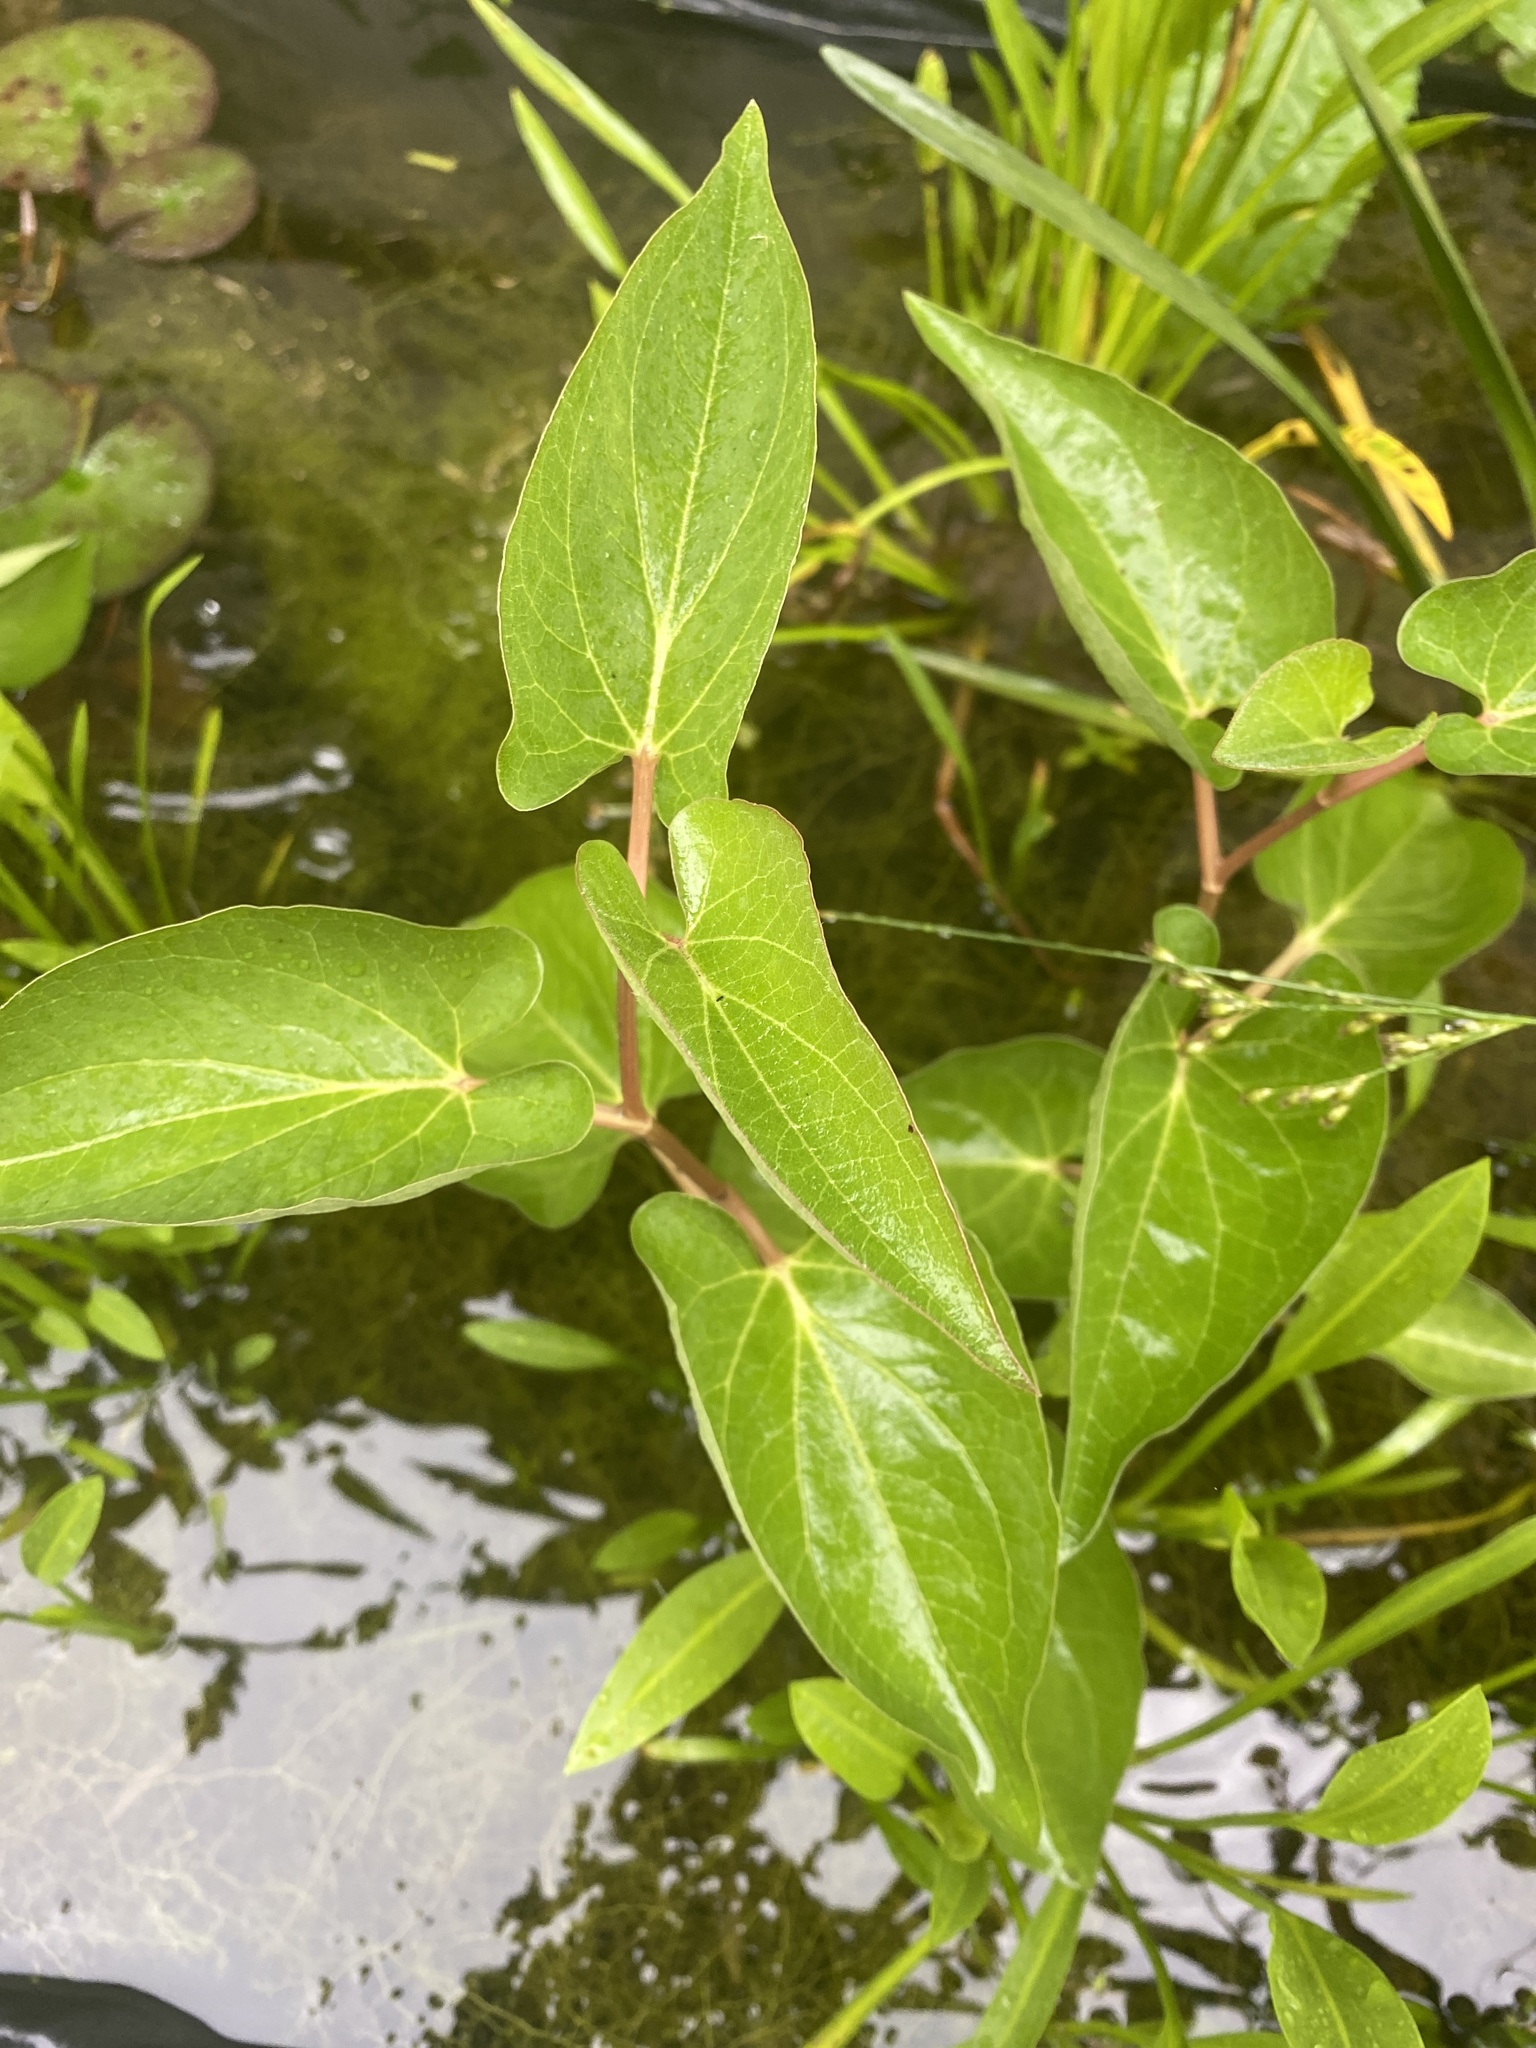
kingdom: Plantae
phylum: Tracheophyta
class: Magnoliopsida
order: Piperales
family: Saururaceae
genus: Saururus
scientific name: Saururus cernuus
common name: Lizard's-tail
